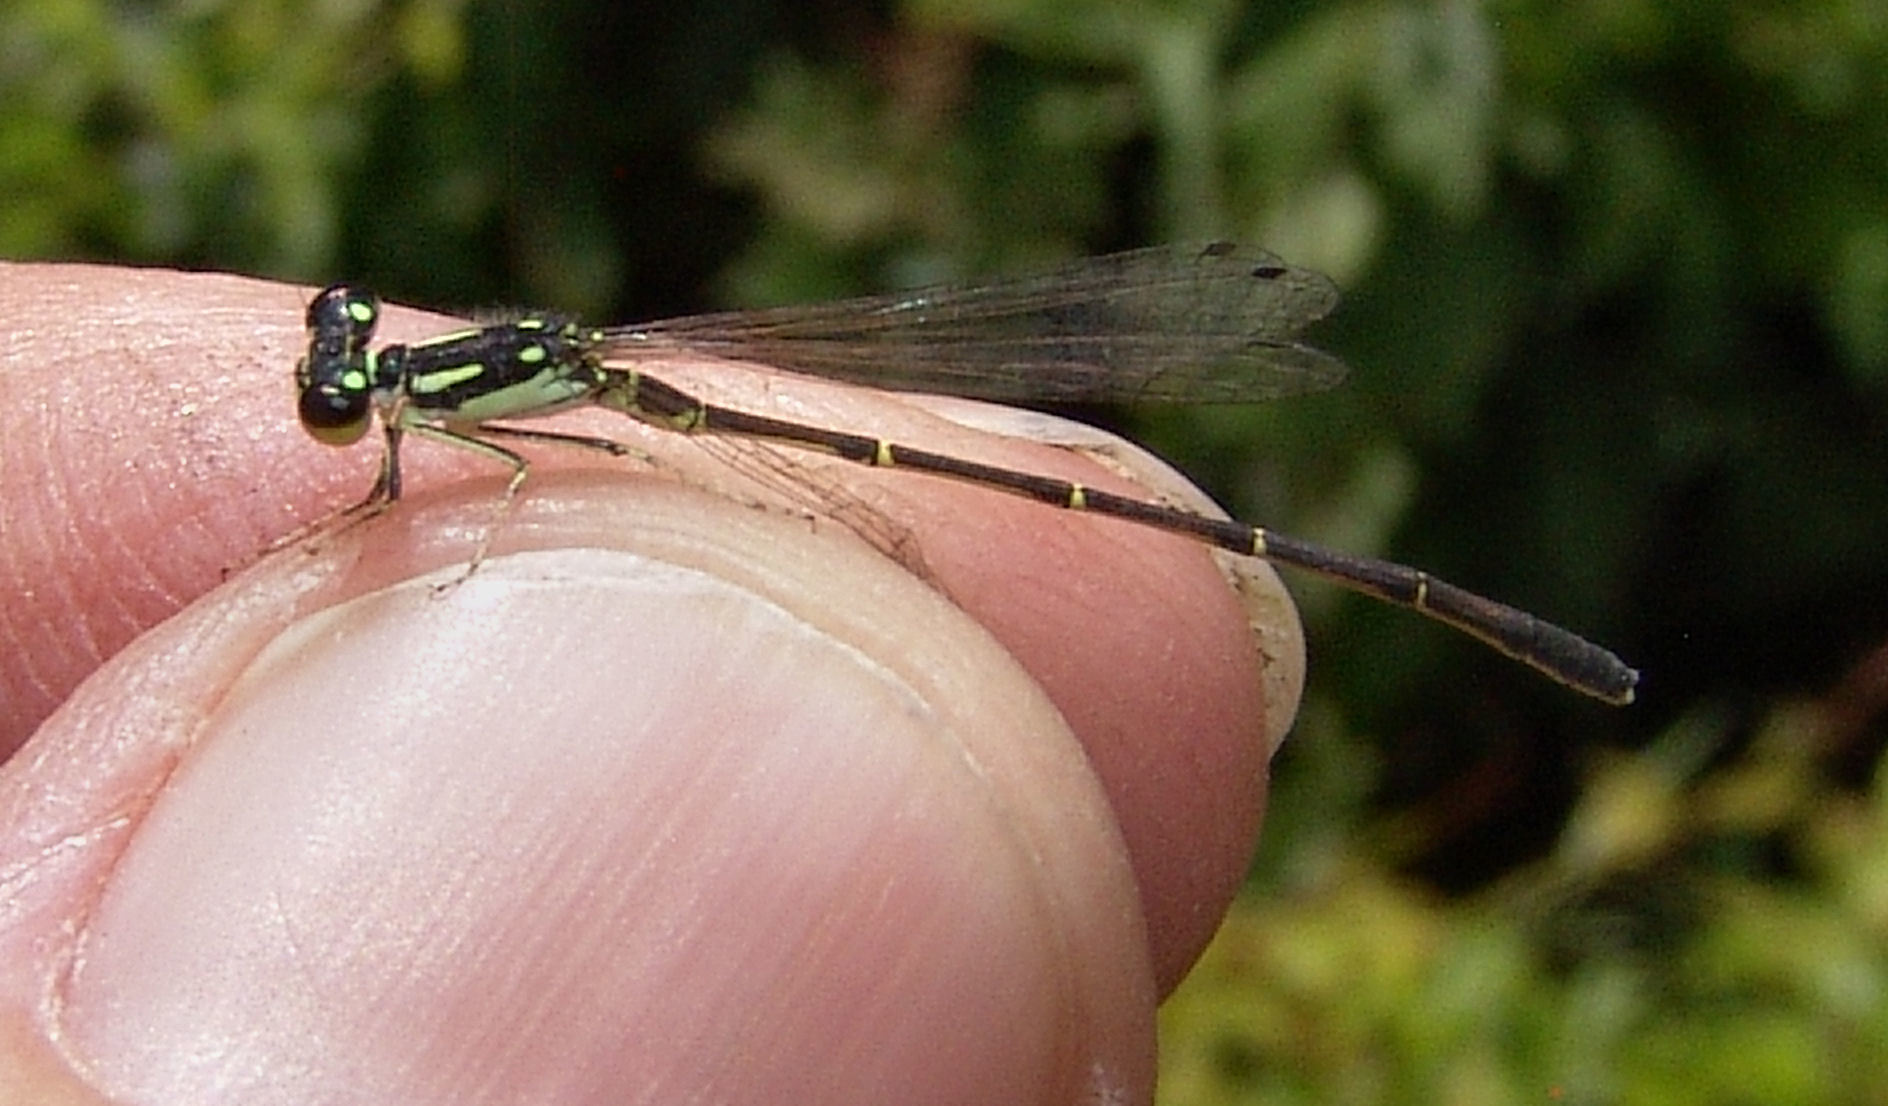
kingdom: Animalia
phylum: Arthropoda
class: Insecta
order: Odonata
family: Coenagrionidae
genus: Ischnura
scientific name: Ischnura posita
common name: Fragile forktail
